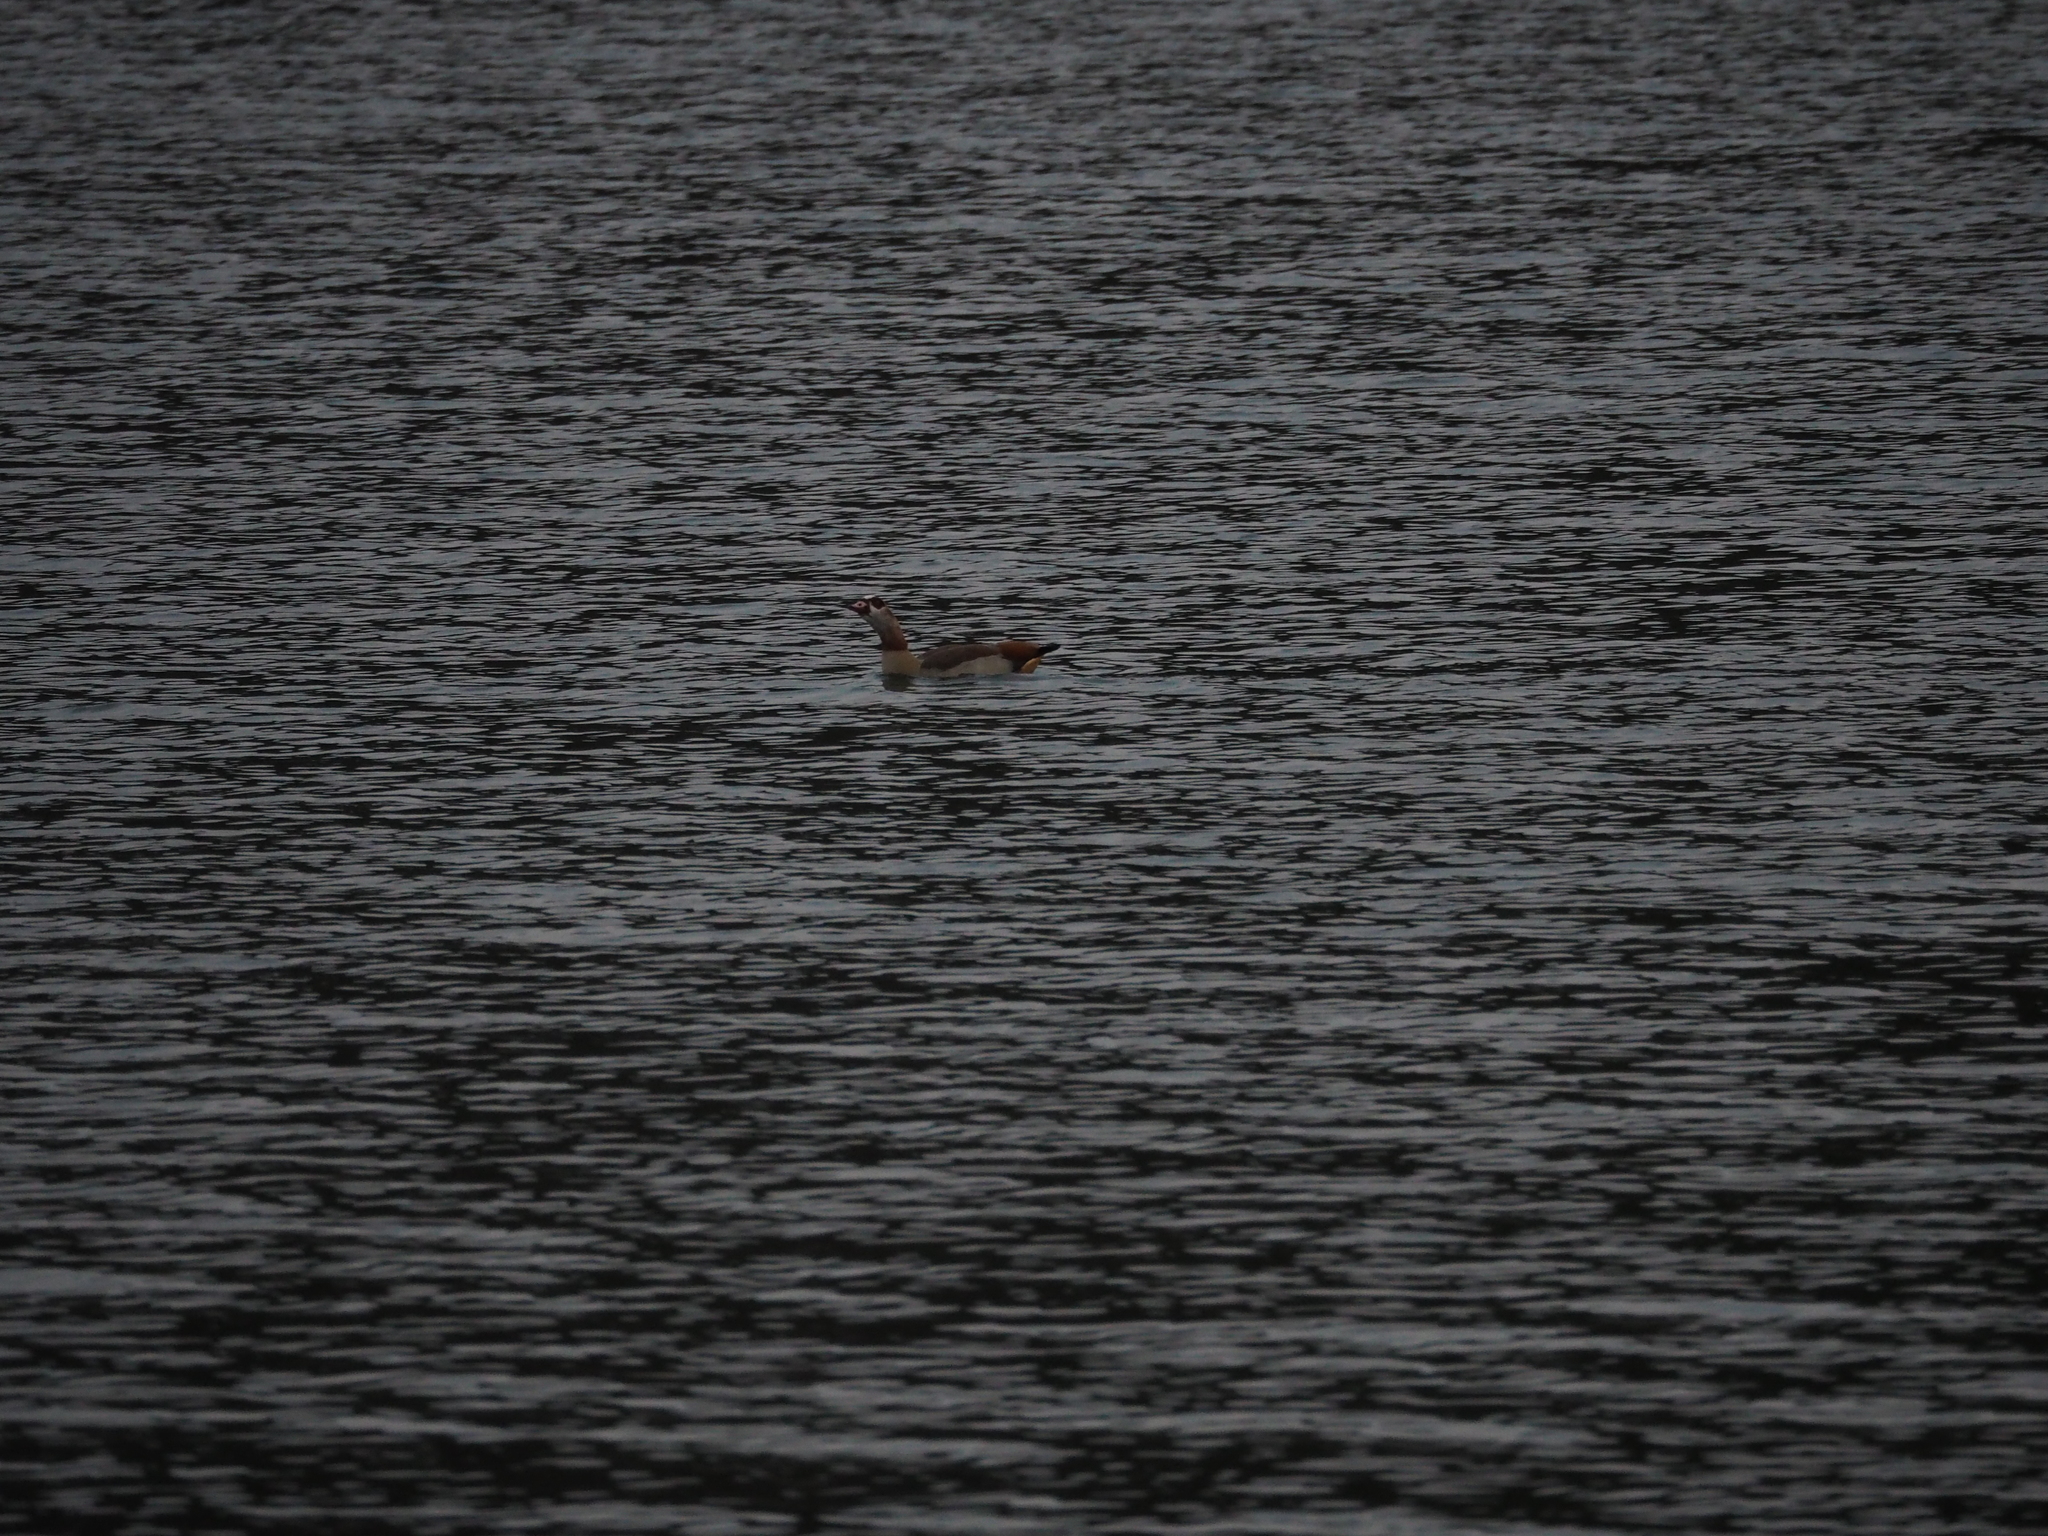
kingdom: Animalia
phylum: Chordata
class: Aves
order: Anseriformes
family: Anatidae
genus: Alopochen
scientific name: Alopochen aegyptiaca
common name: Egyptian goose
